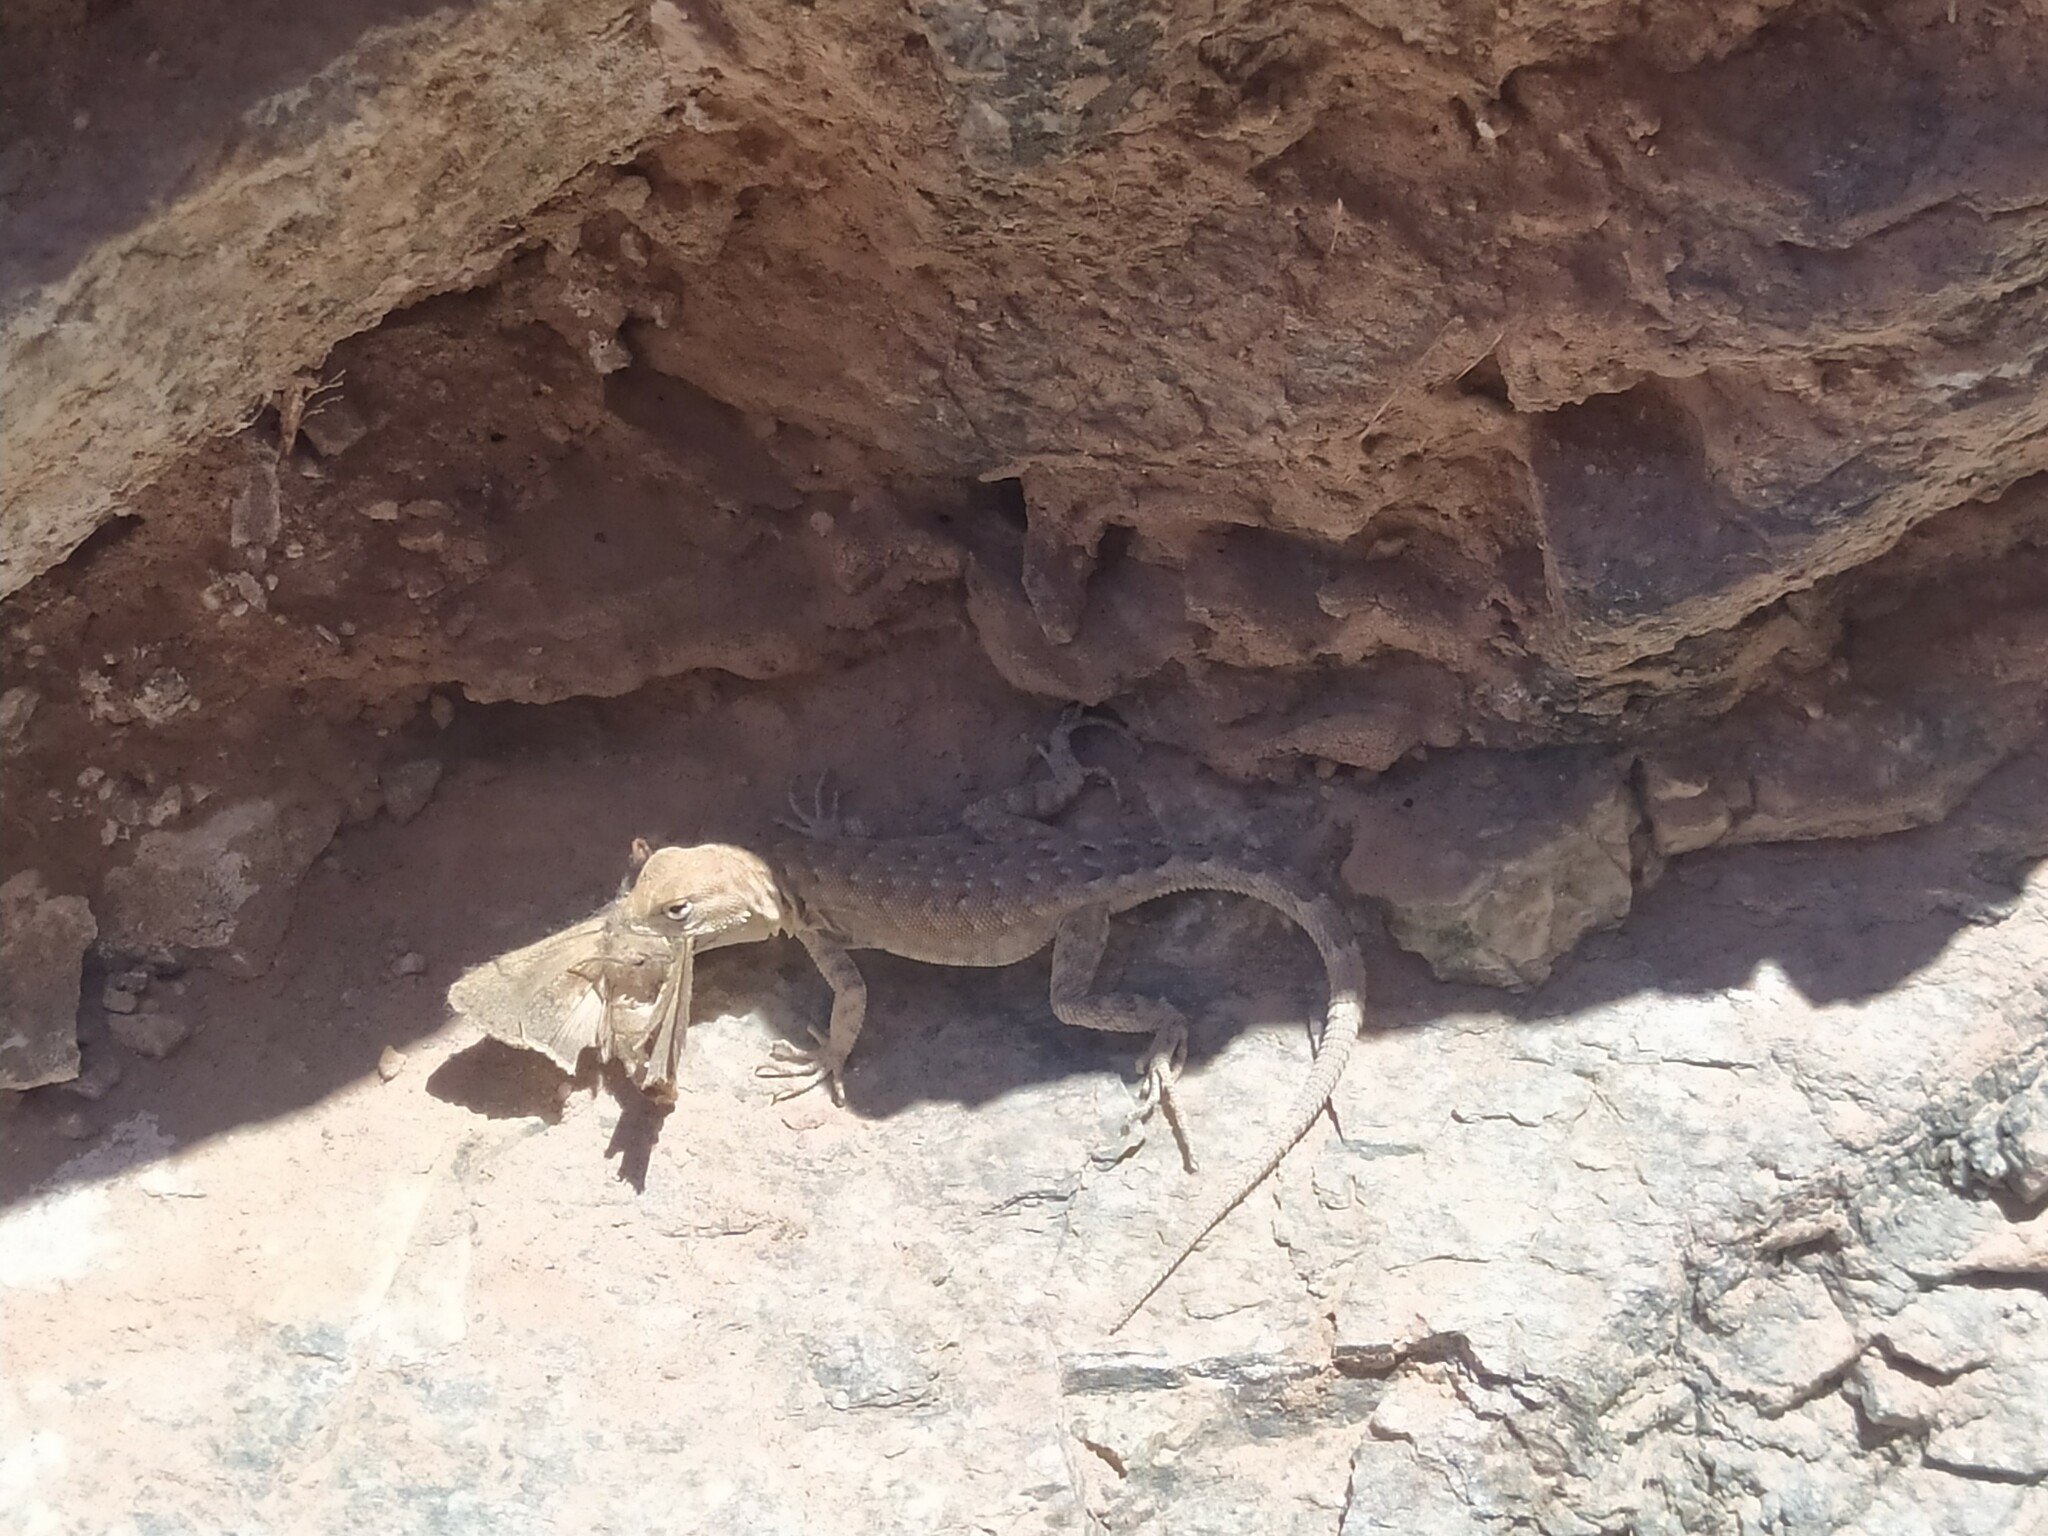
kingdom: Animalia
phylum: Chordata
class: Squamata
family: Phrynosomatidae
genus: Uta
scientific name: Uta stansburiana
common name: Side-blotched lizard
